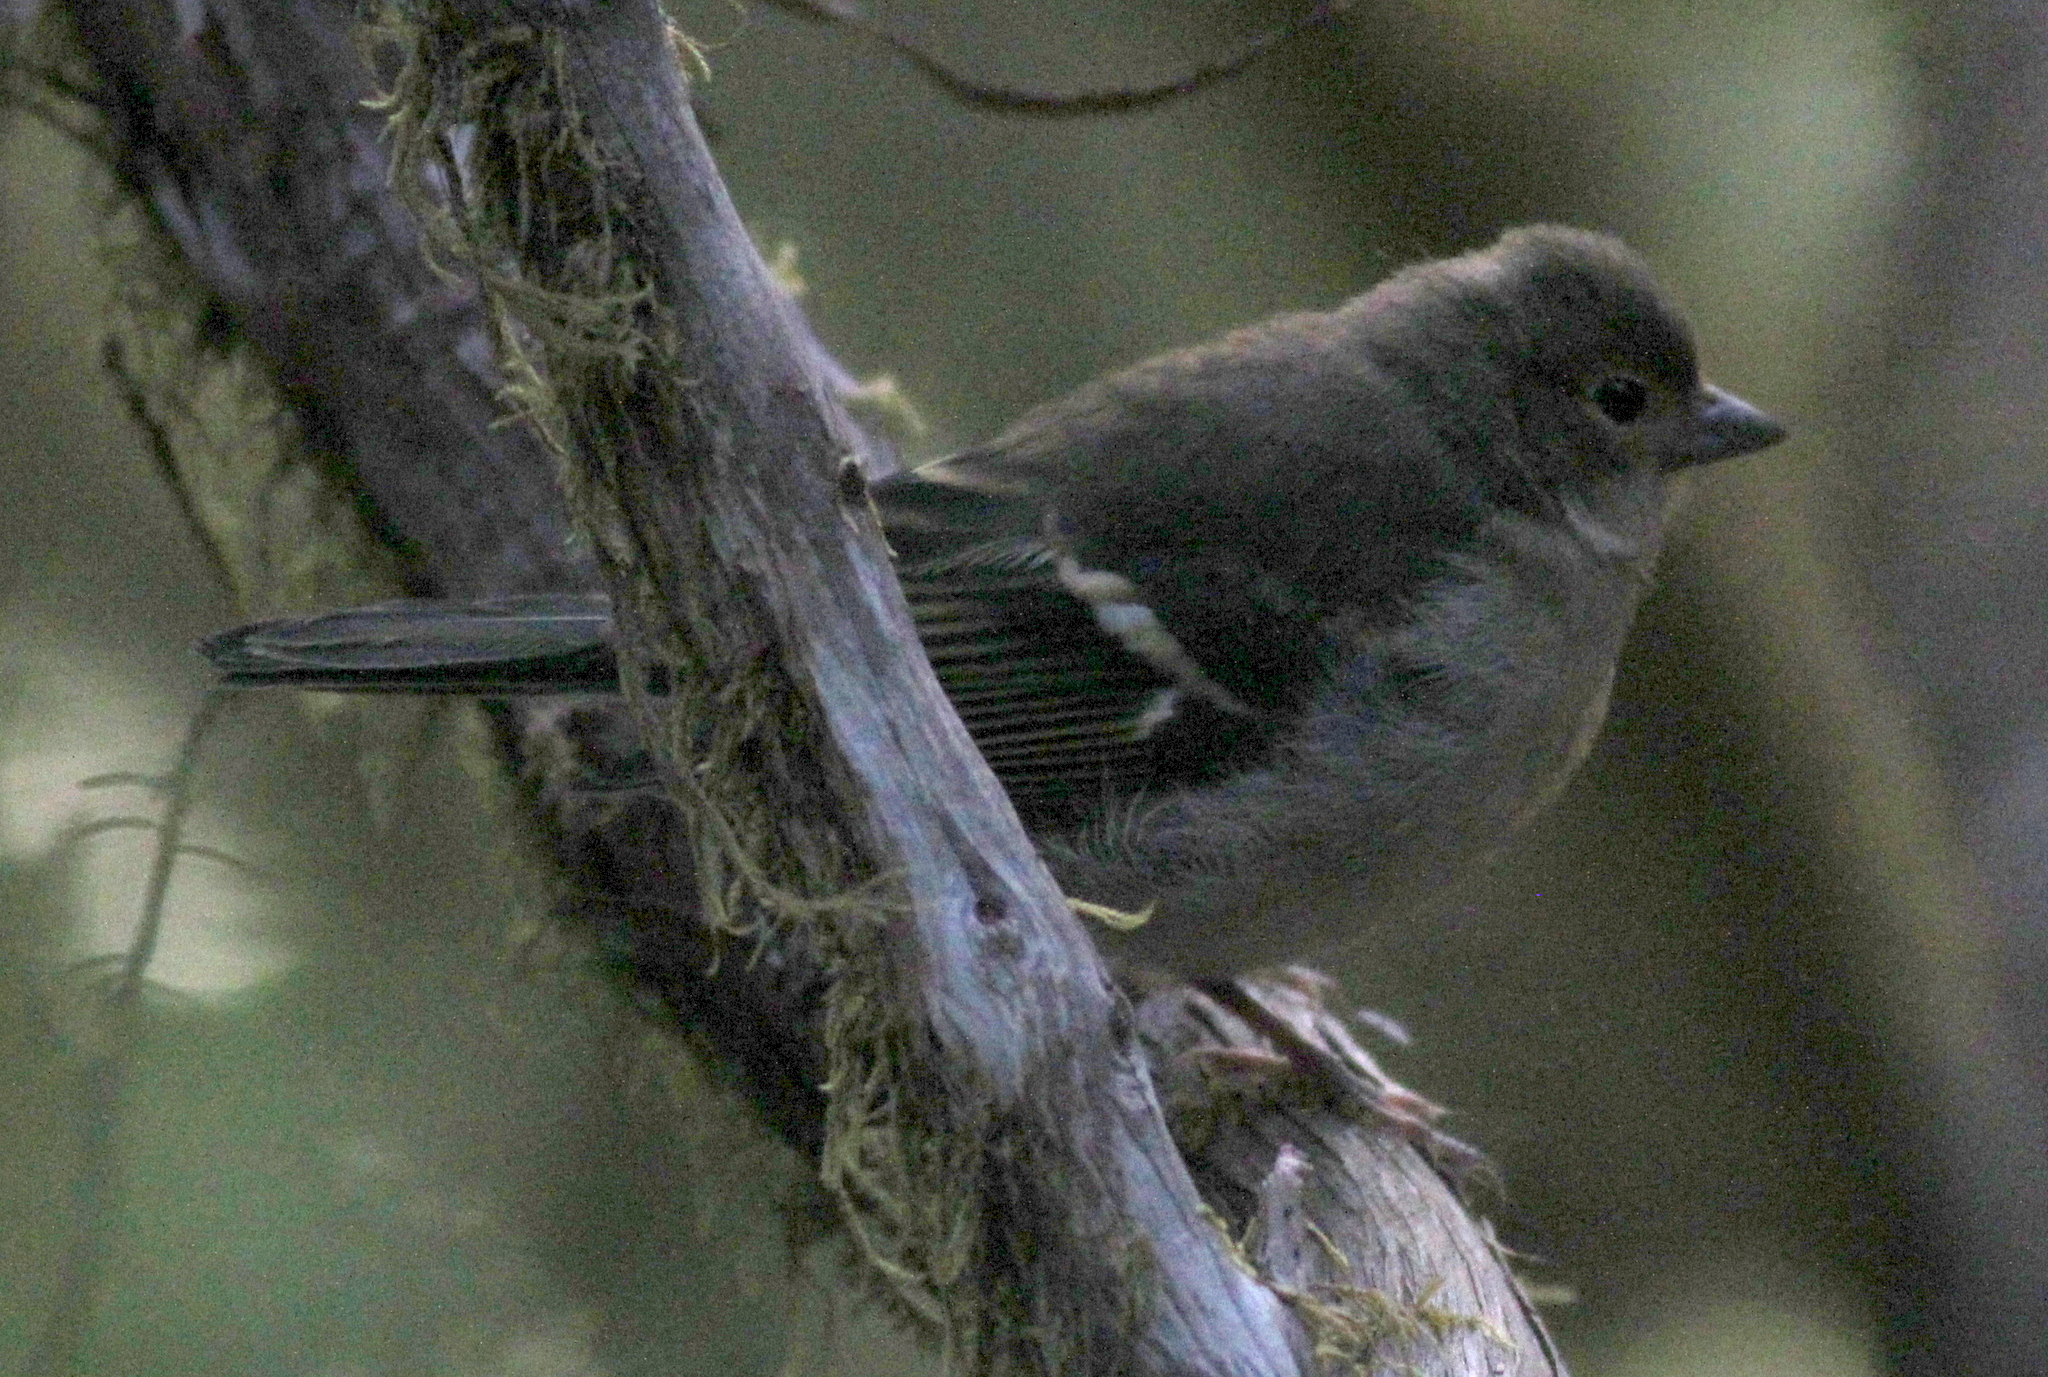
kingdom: Animalia
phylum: Chordata
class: Aves
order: Passeriformes
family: Fringillidae
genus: Fringilla
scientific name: Fringilla canariensis
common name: Canary islands chaffinch
